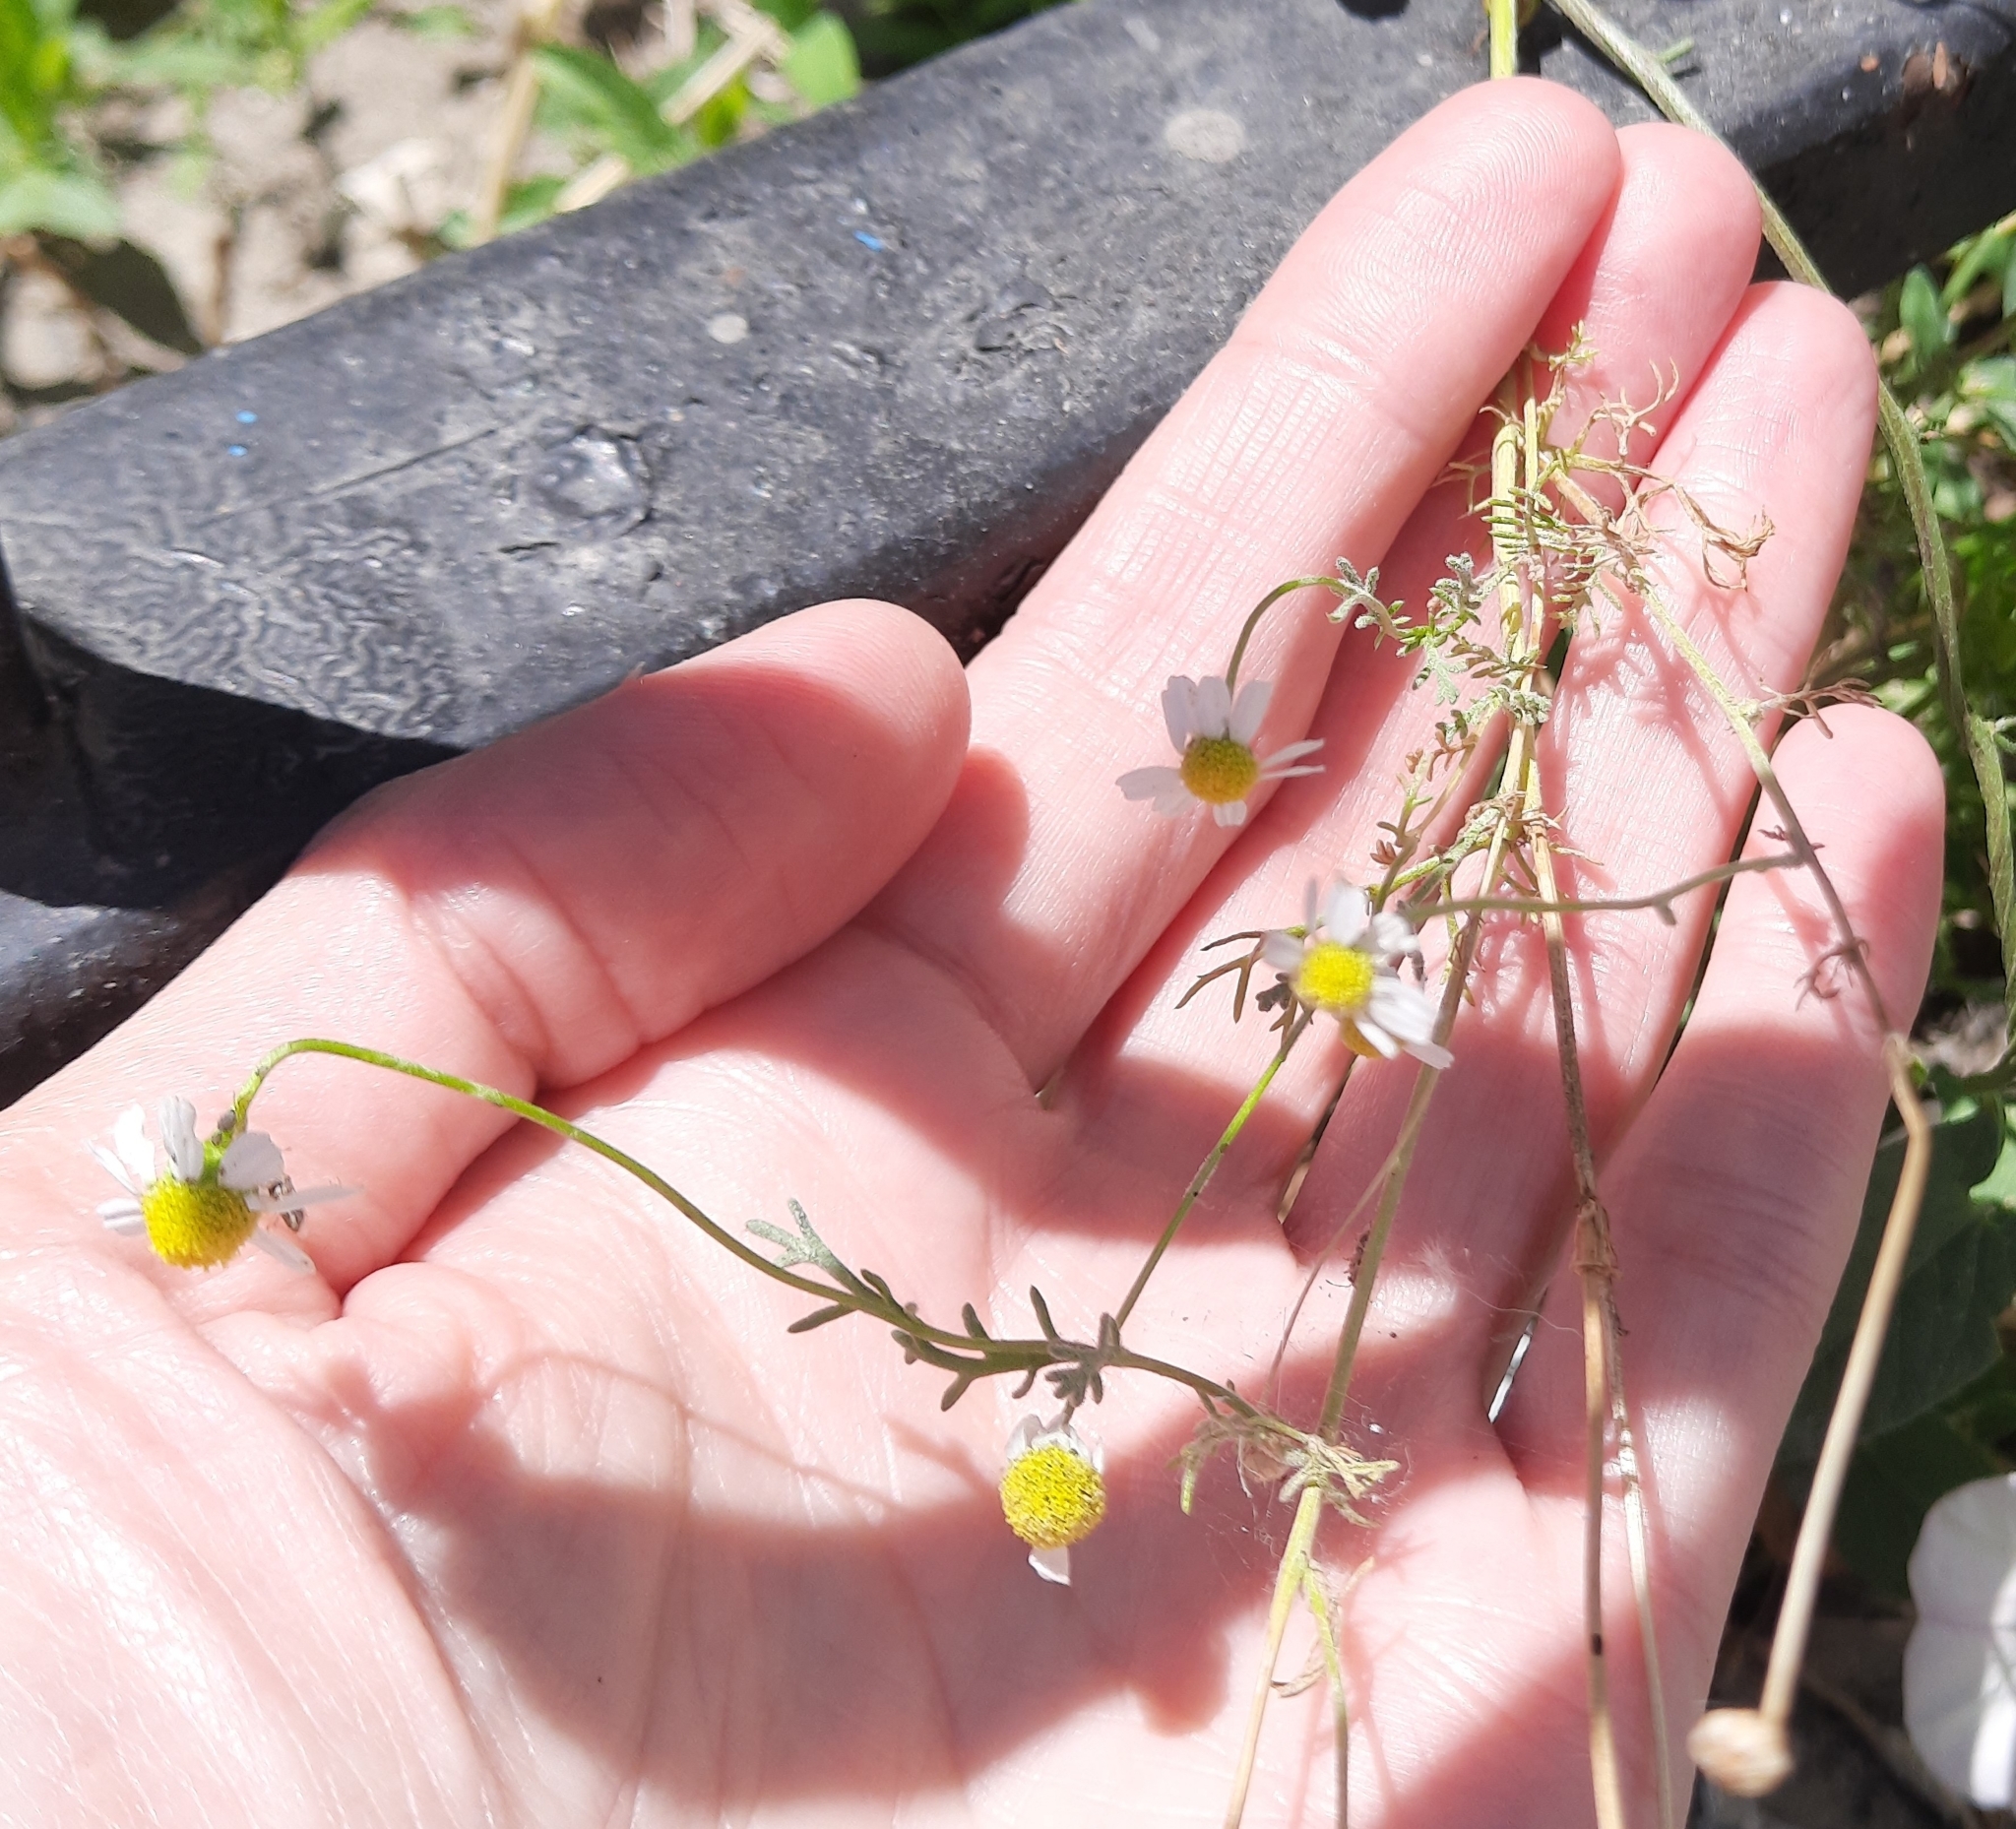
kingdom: Plantae
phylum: Tracheophyta
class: Magnoliopsida
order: Asterales
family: Asteraceae
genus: Matricaria
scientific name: Matricaria chamomilla
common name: Scented mayweed
